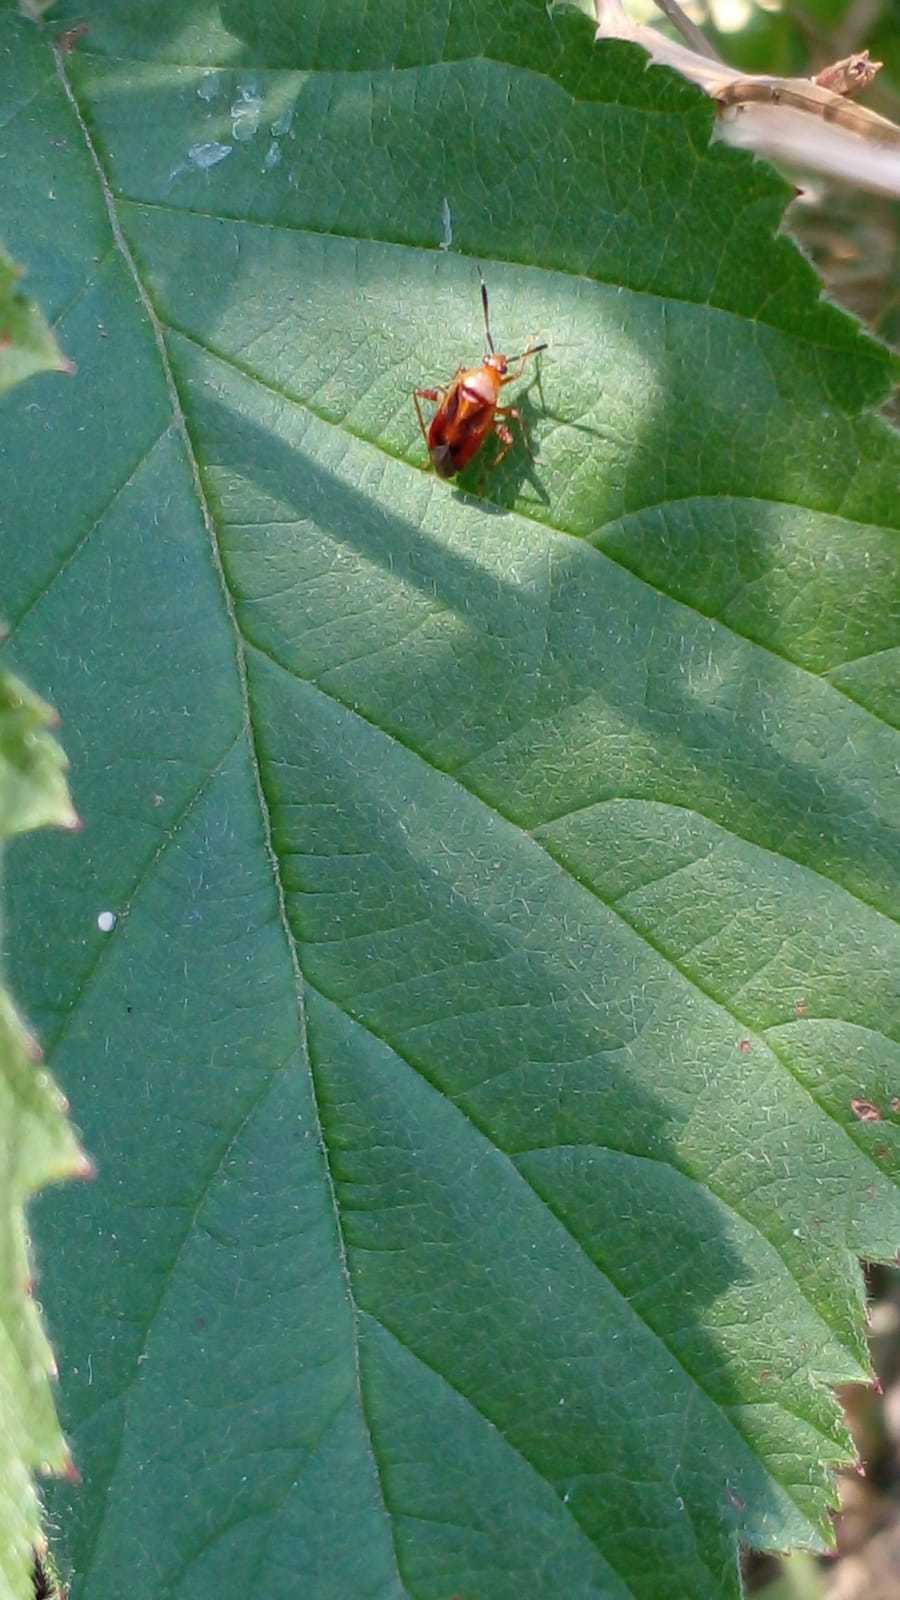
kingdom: Animalia
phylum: Arthropoda
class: Insecta
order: Hemiptera
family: Miridae
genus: Horciasinus
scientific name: Horciasinus argentinus
